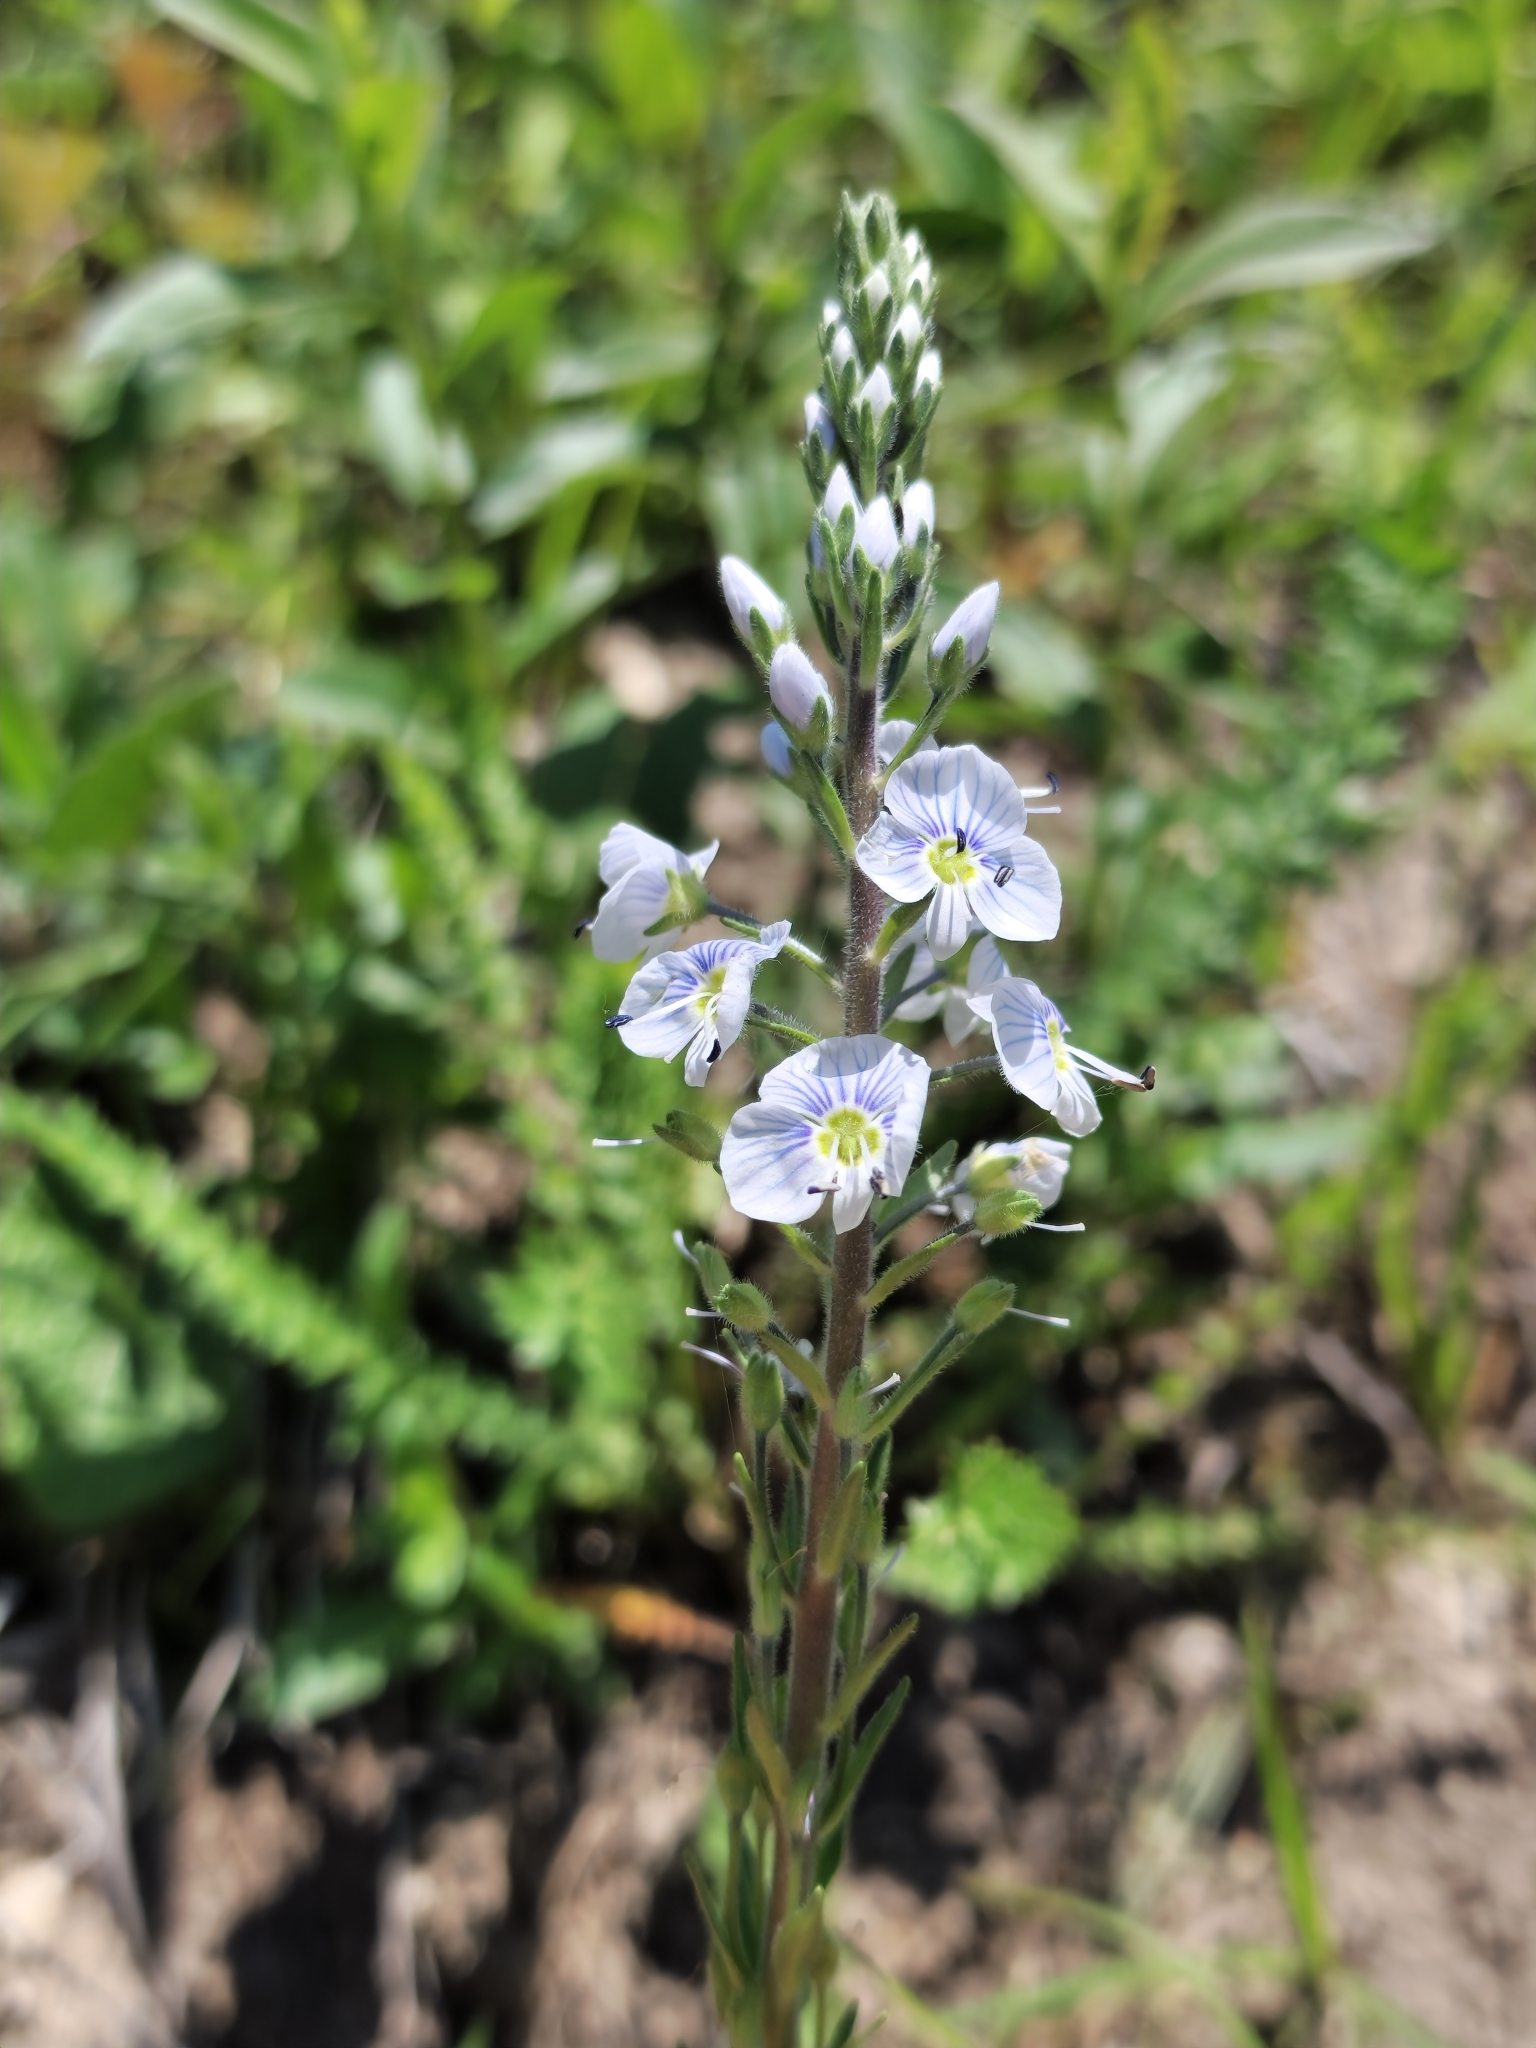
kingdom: Plantae
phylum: Tracheophyta
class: Magnoliopsida
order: Lamiales
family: Plantaginaceae
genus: Veronica
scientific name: Veronica gentianoides
